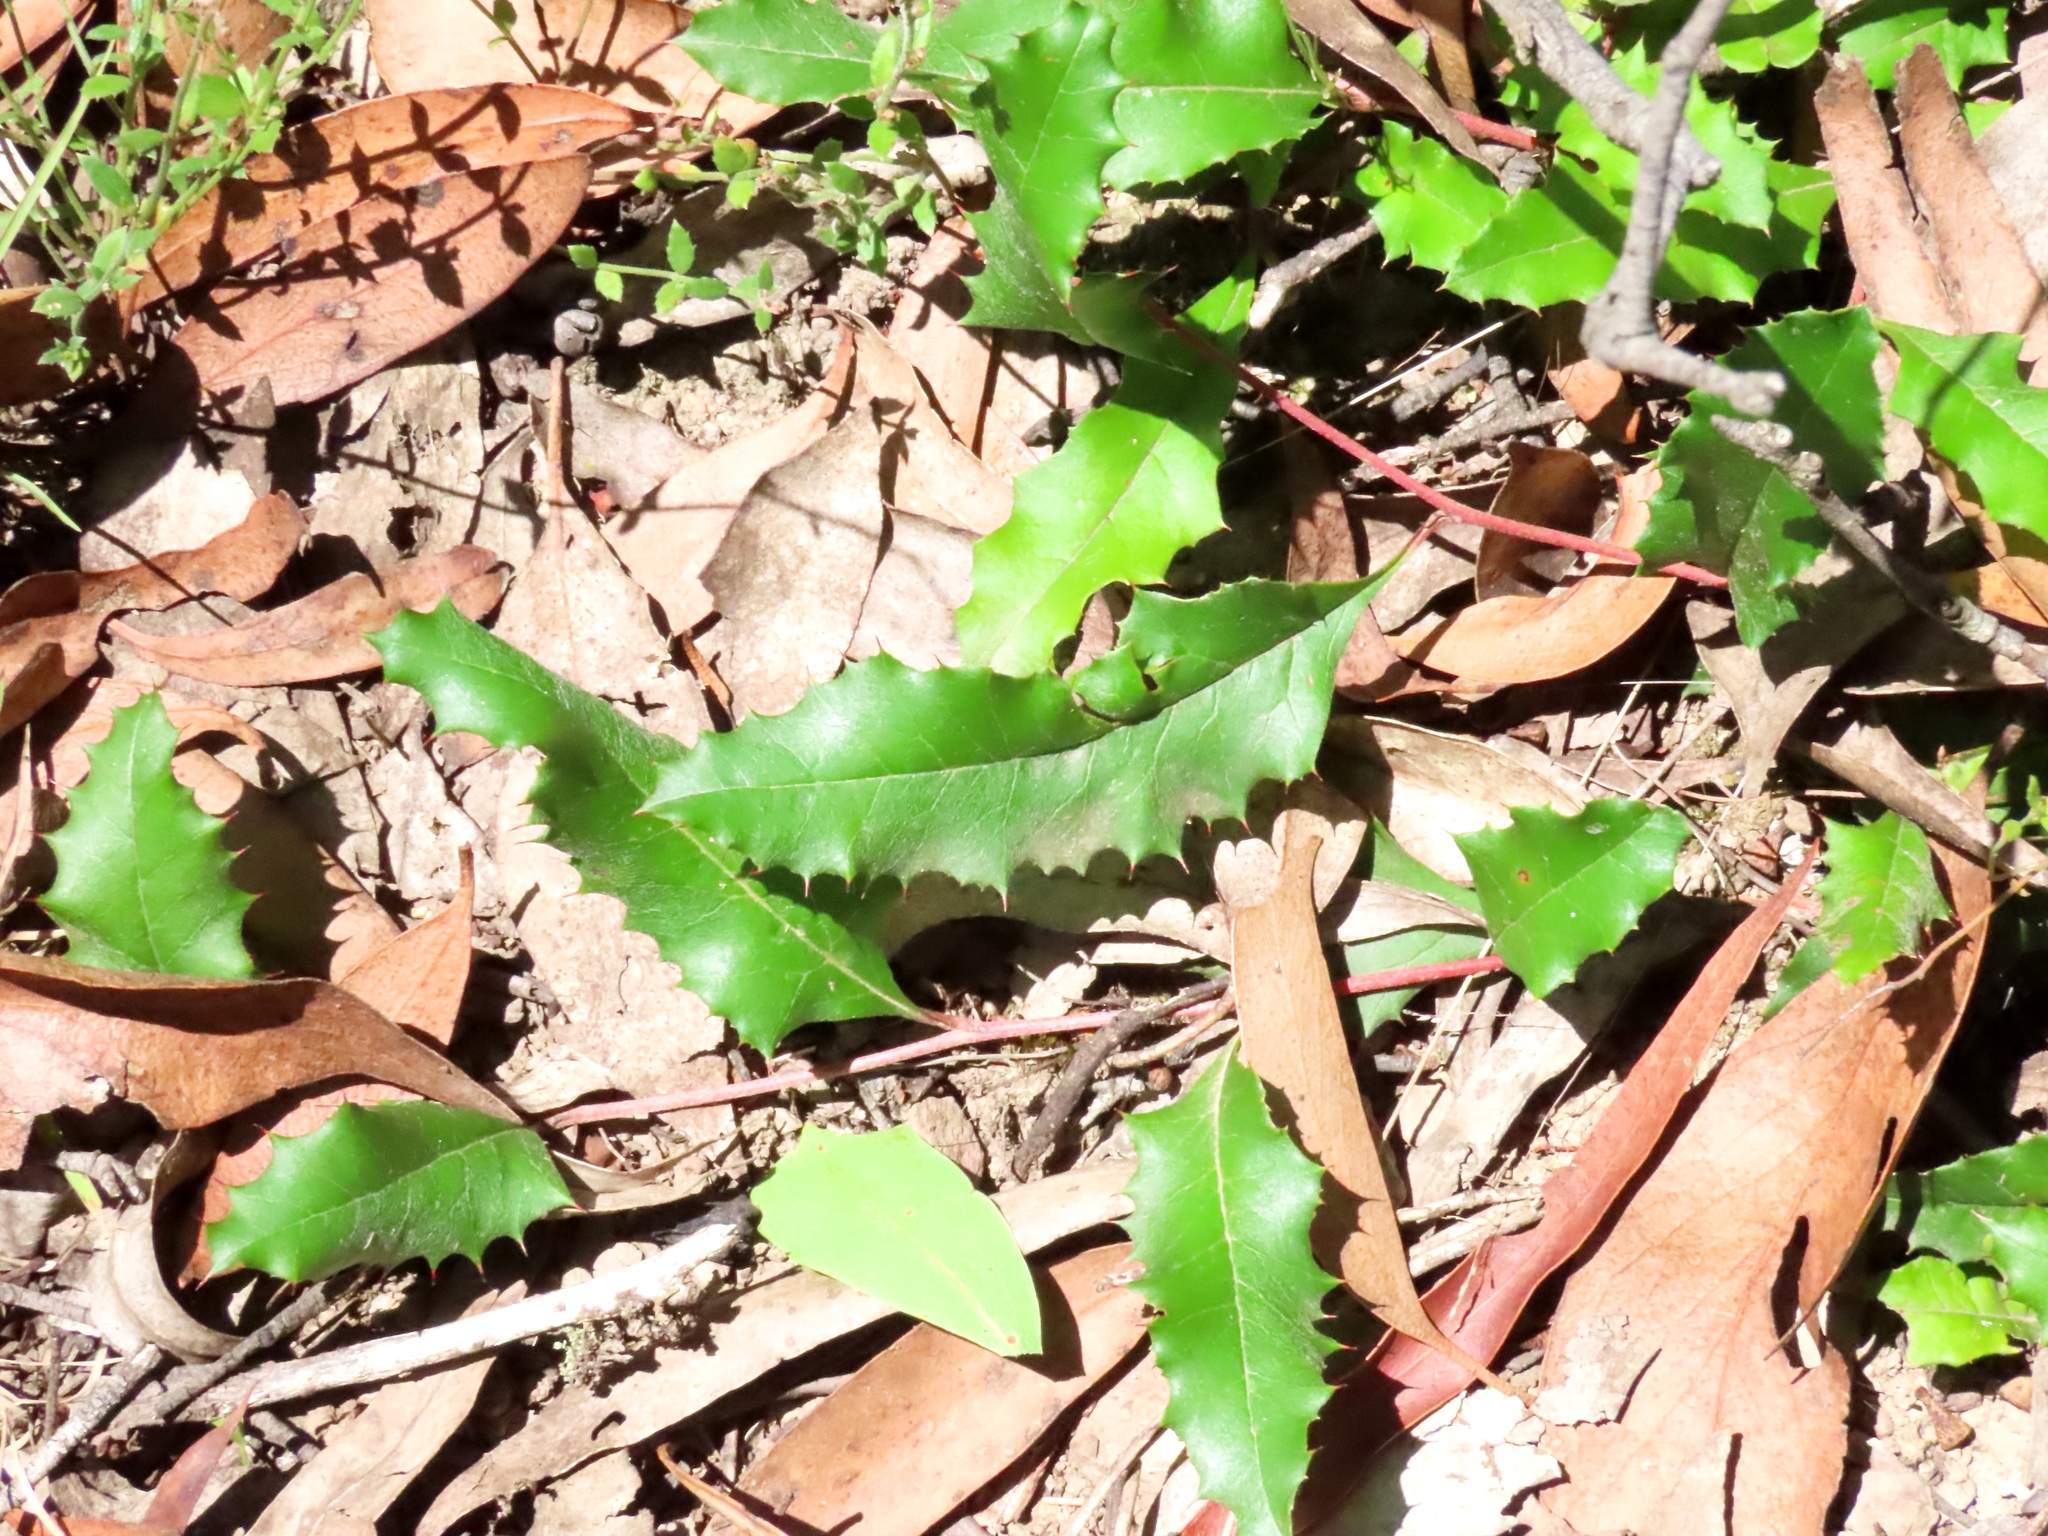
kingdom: Plantae
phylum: Tracheophyta
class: Magnoliopsida
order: Proteales
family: Proteaceae
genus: Grevillea
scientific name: Grevillea repens
